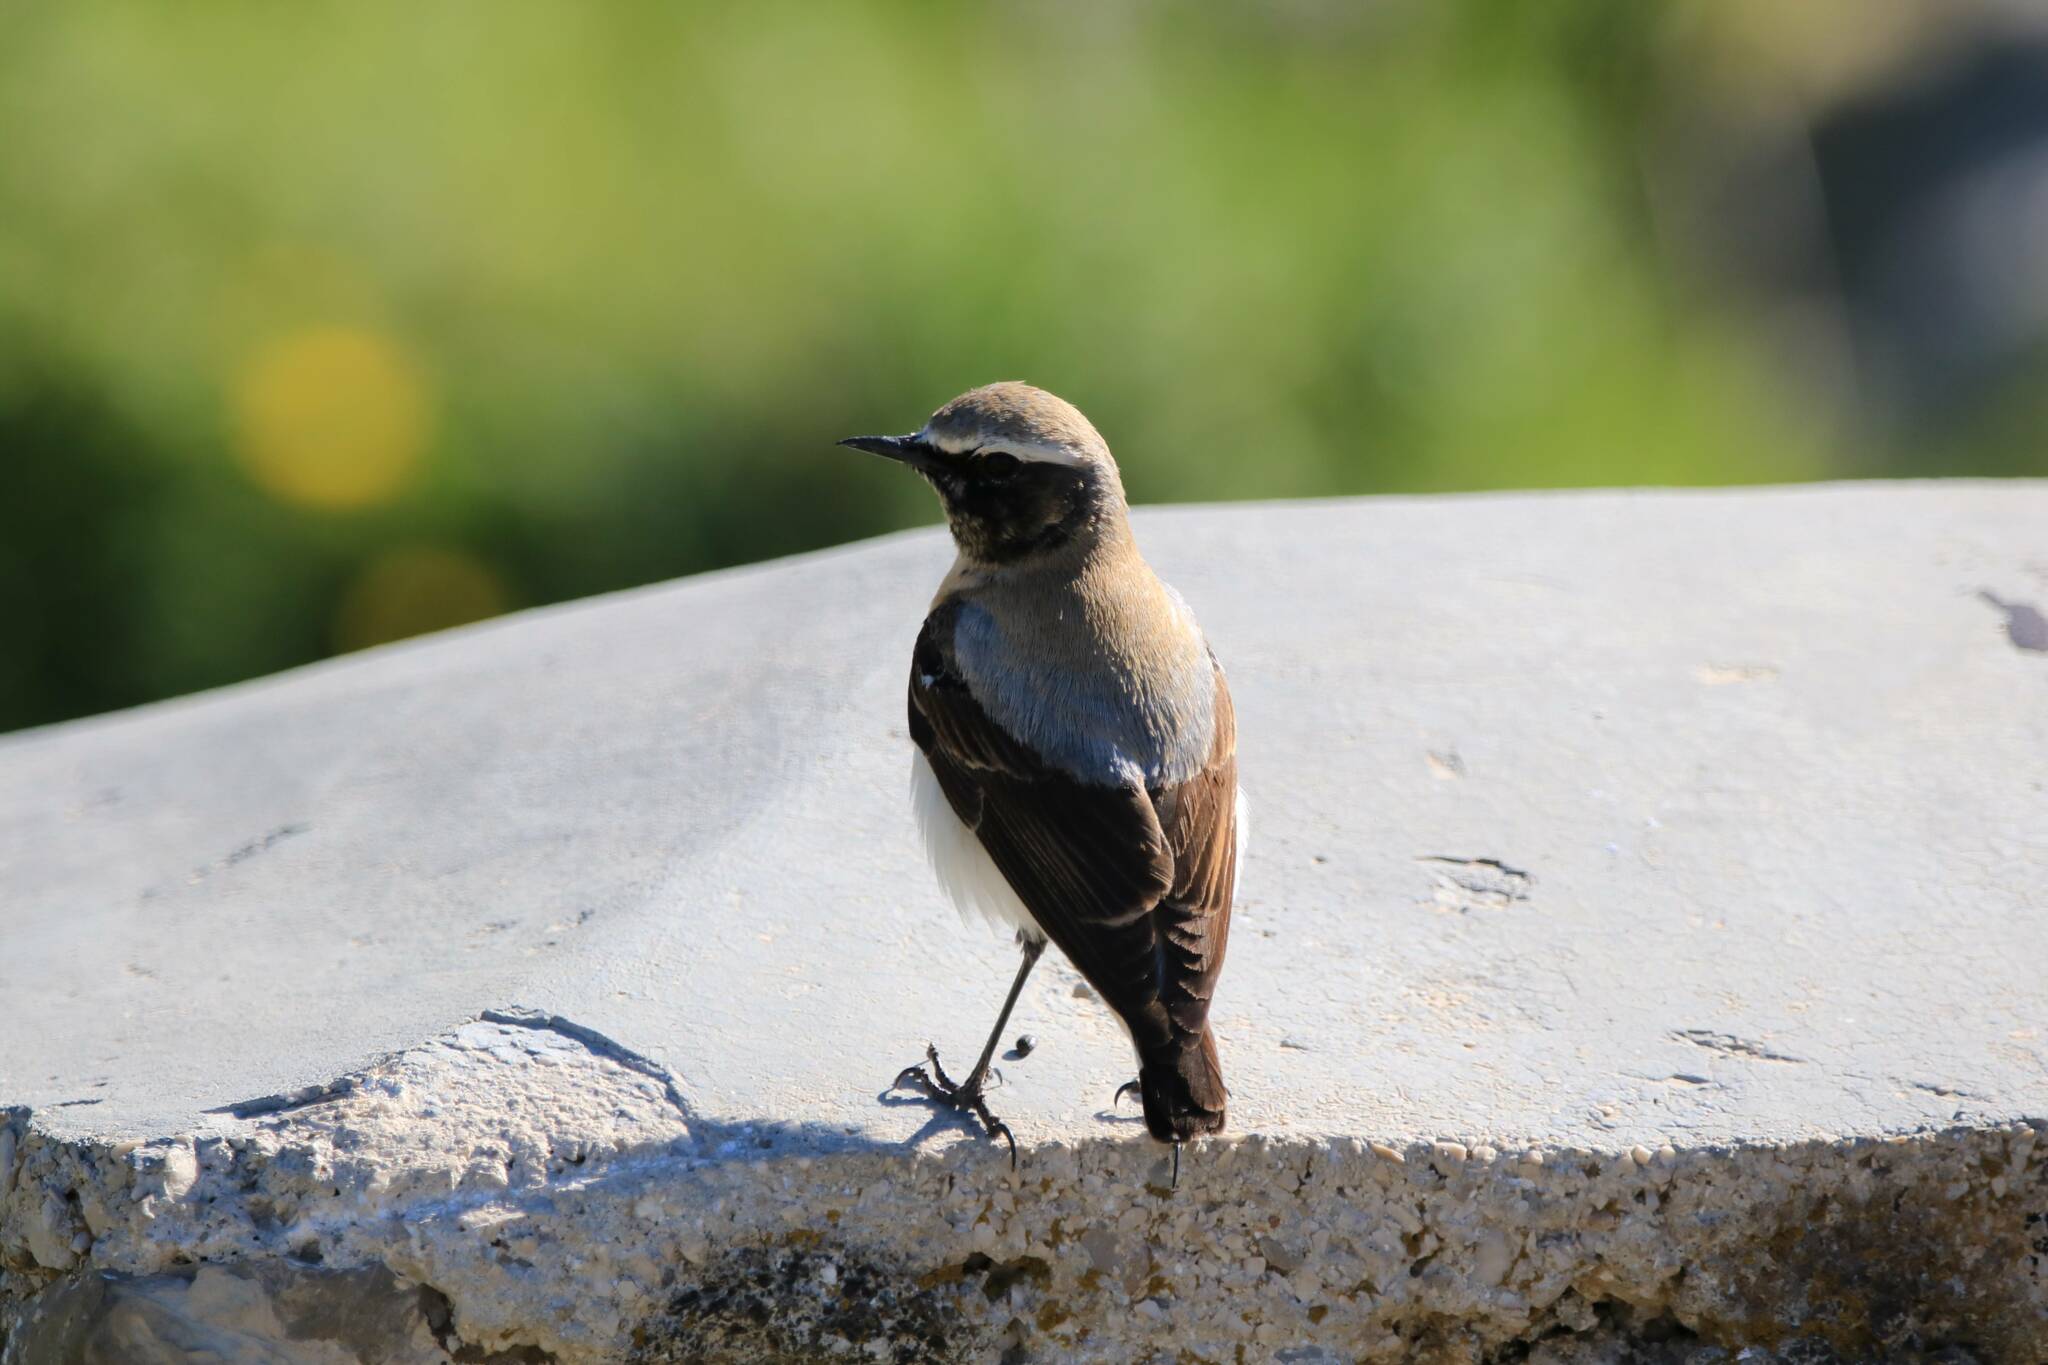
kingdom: Animalia
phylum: Chordata
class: Aves
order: Passeriformes
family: Muscicapidae
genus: Oenanthe
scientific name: Oenanthe oenanthe
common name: Northern wheatear
